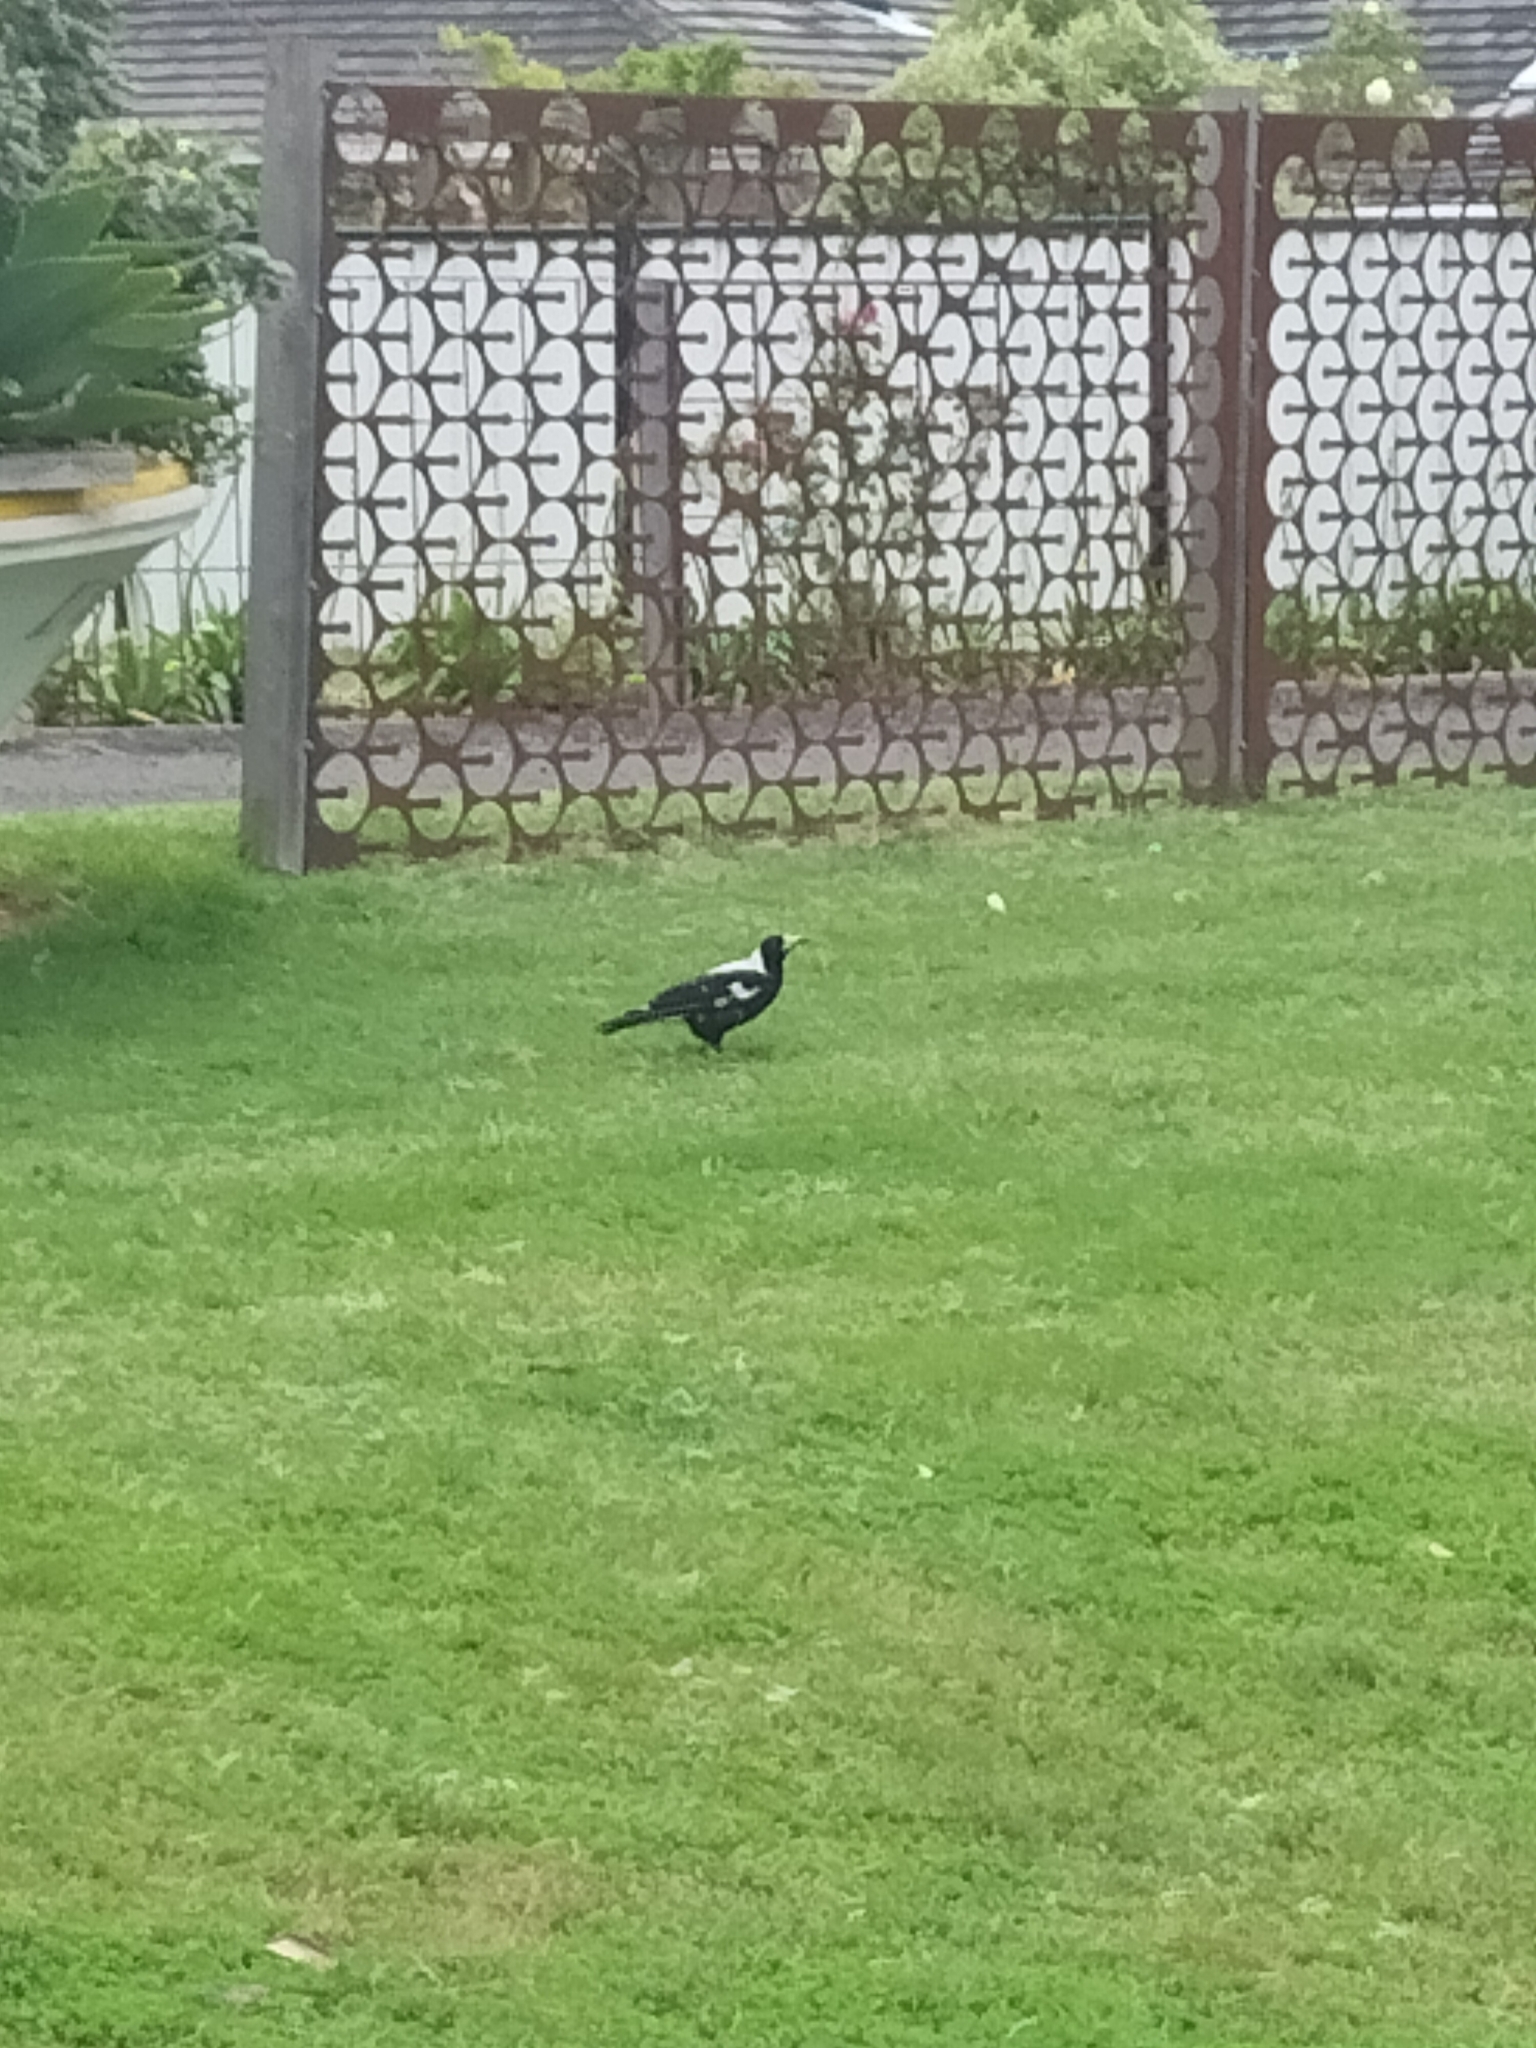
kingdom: Animalia
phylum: Chordata
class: Aves
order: Passeriformes
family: Cracticidae
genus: Gymnorhina
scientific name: Gymnorhina tibicen
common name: Australian magpie
